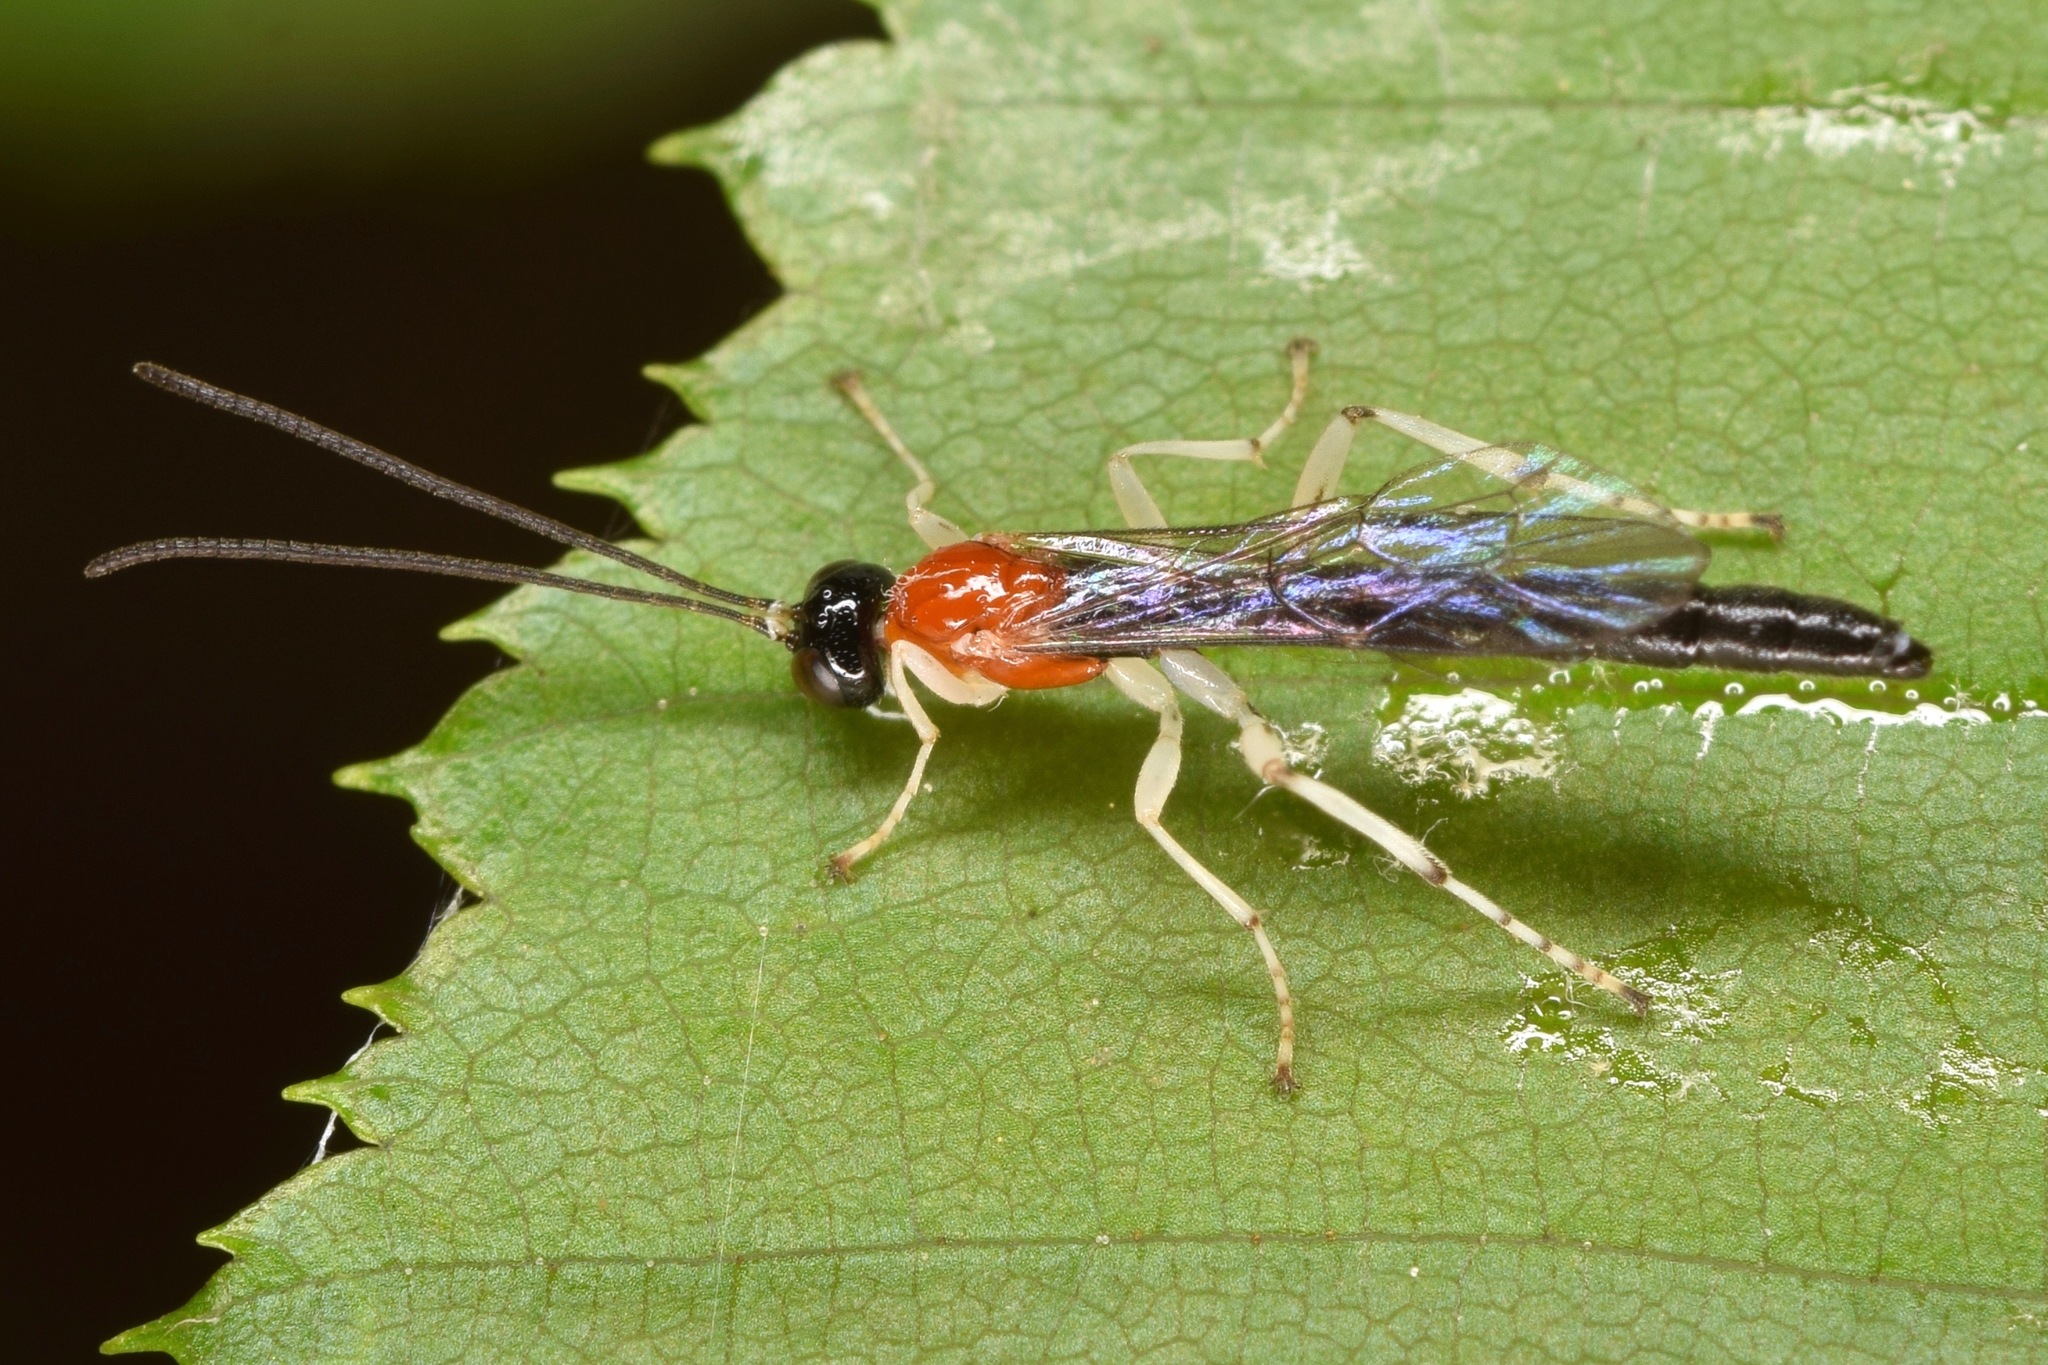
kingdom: Animalia
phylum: Arthropoda
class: Insecta
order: Hymenoptera
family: Ichneumonidae
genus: Calliephialtes
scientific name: Calliephialtes grapholithae
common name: Parasitoid wasp
